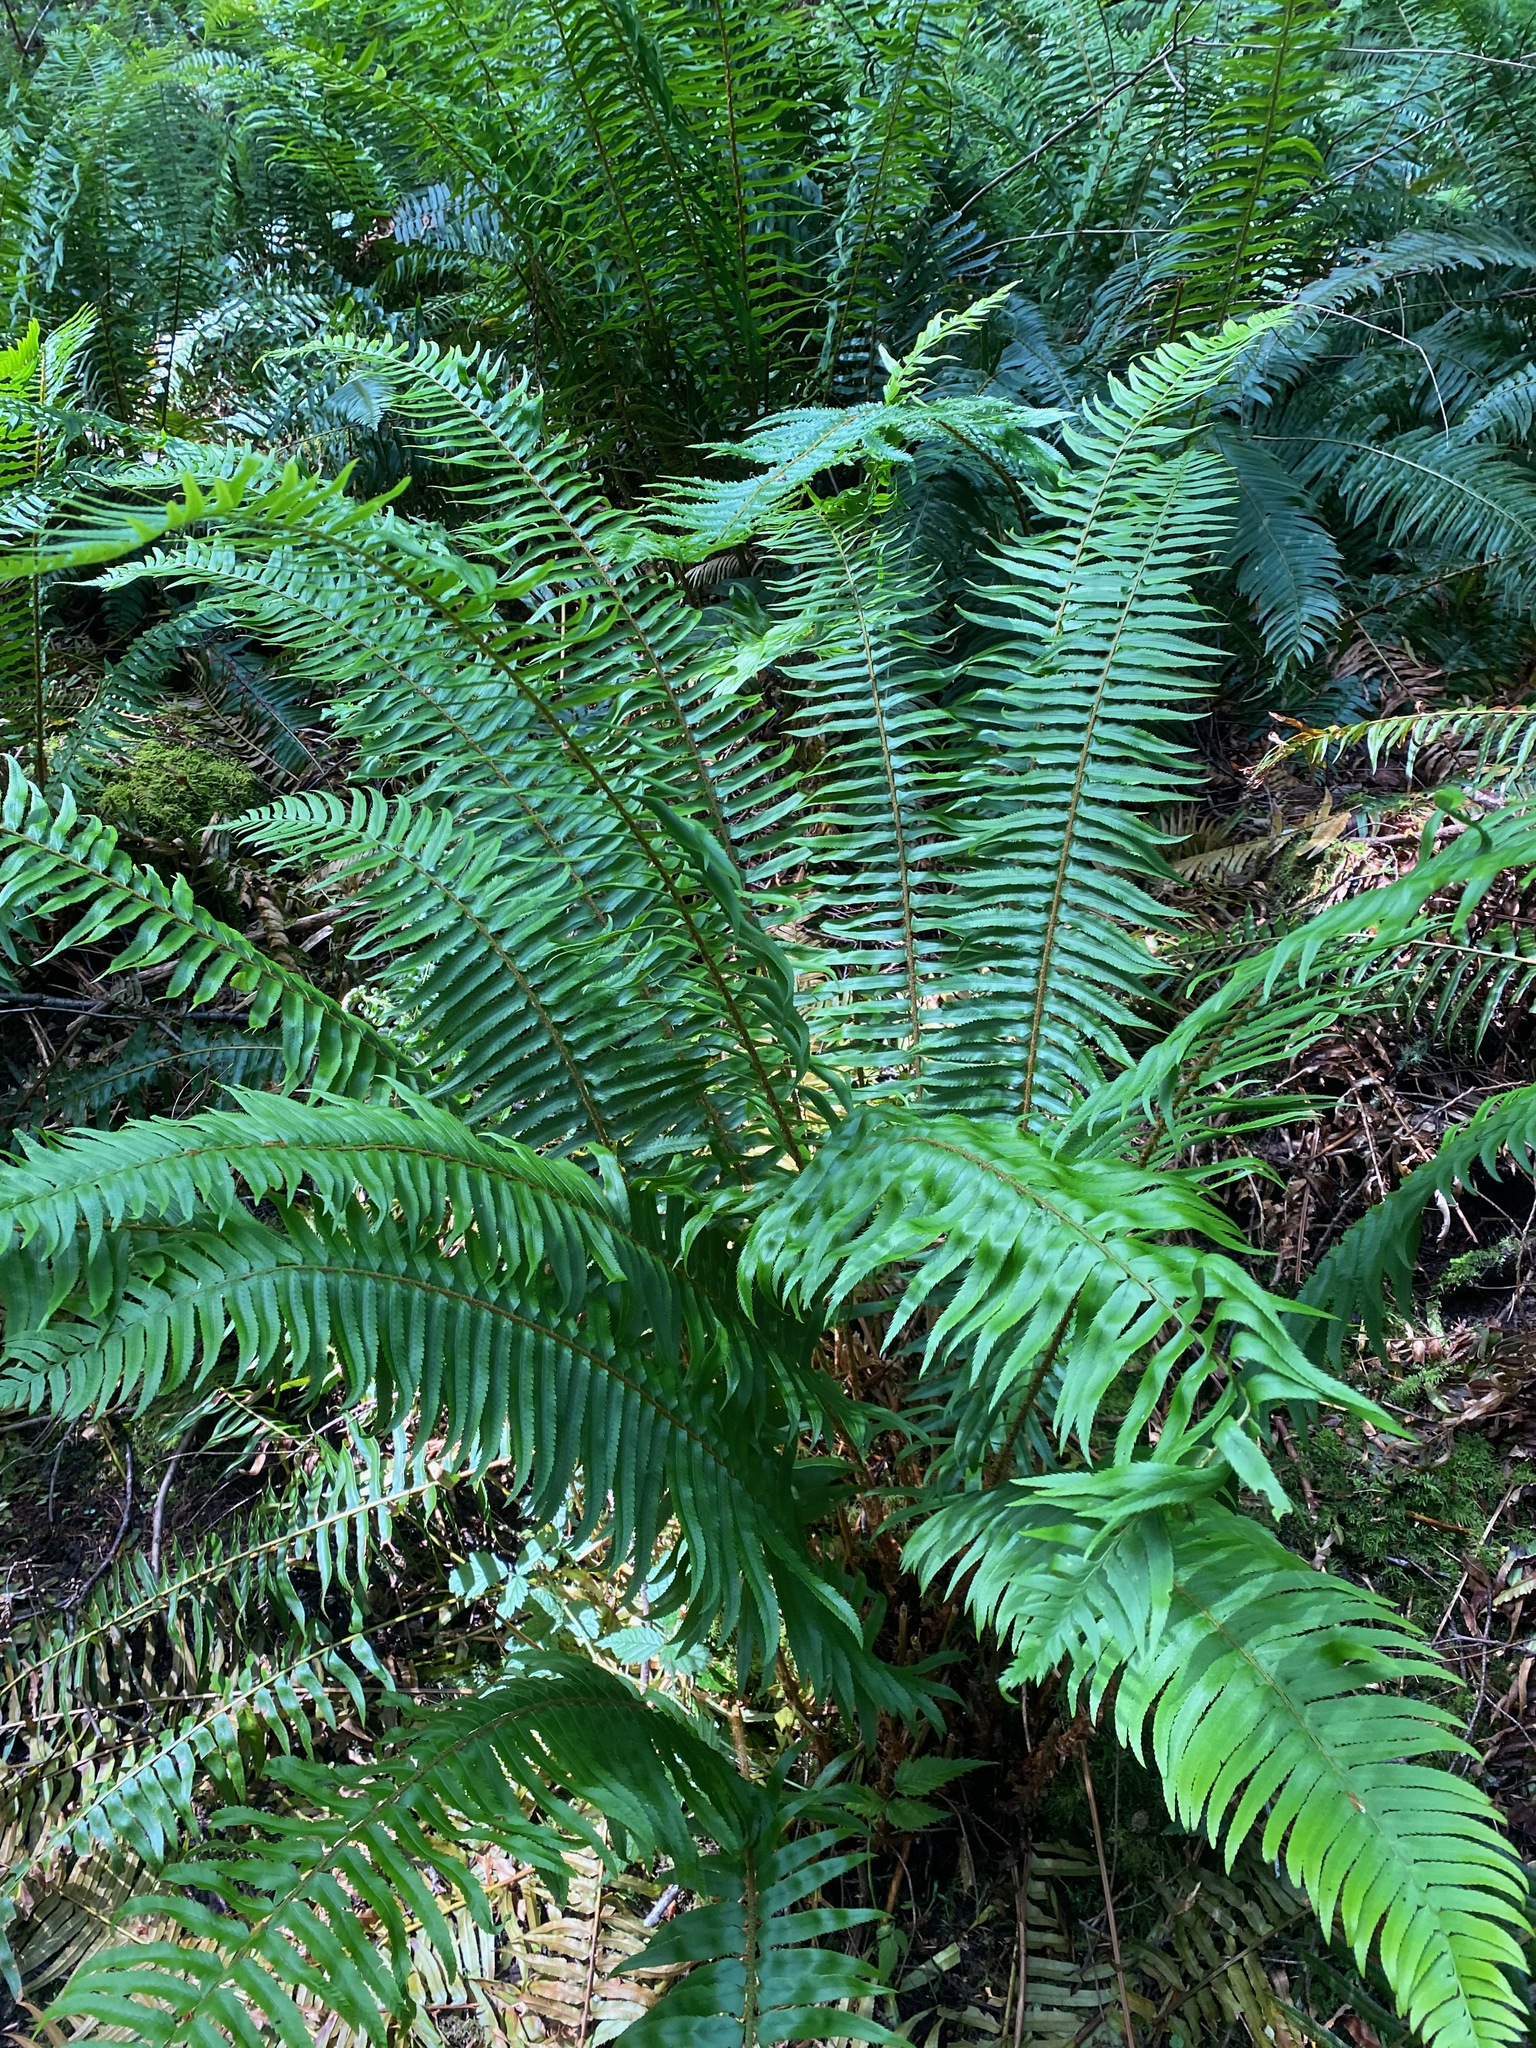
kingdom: Plantae
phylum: Tracheophyta
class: Polypodiopsida
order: Polypodiales
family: Dryopteridaceae
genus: Polystichum
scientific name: Polystichum munitum
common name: Western sword-fern
